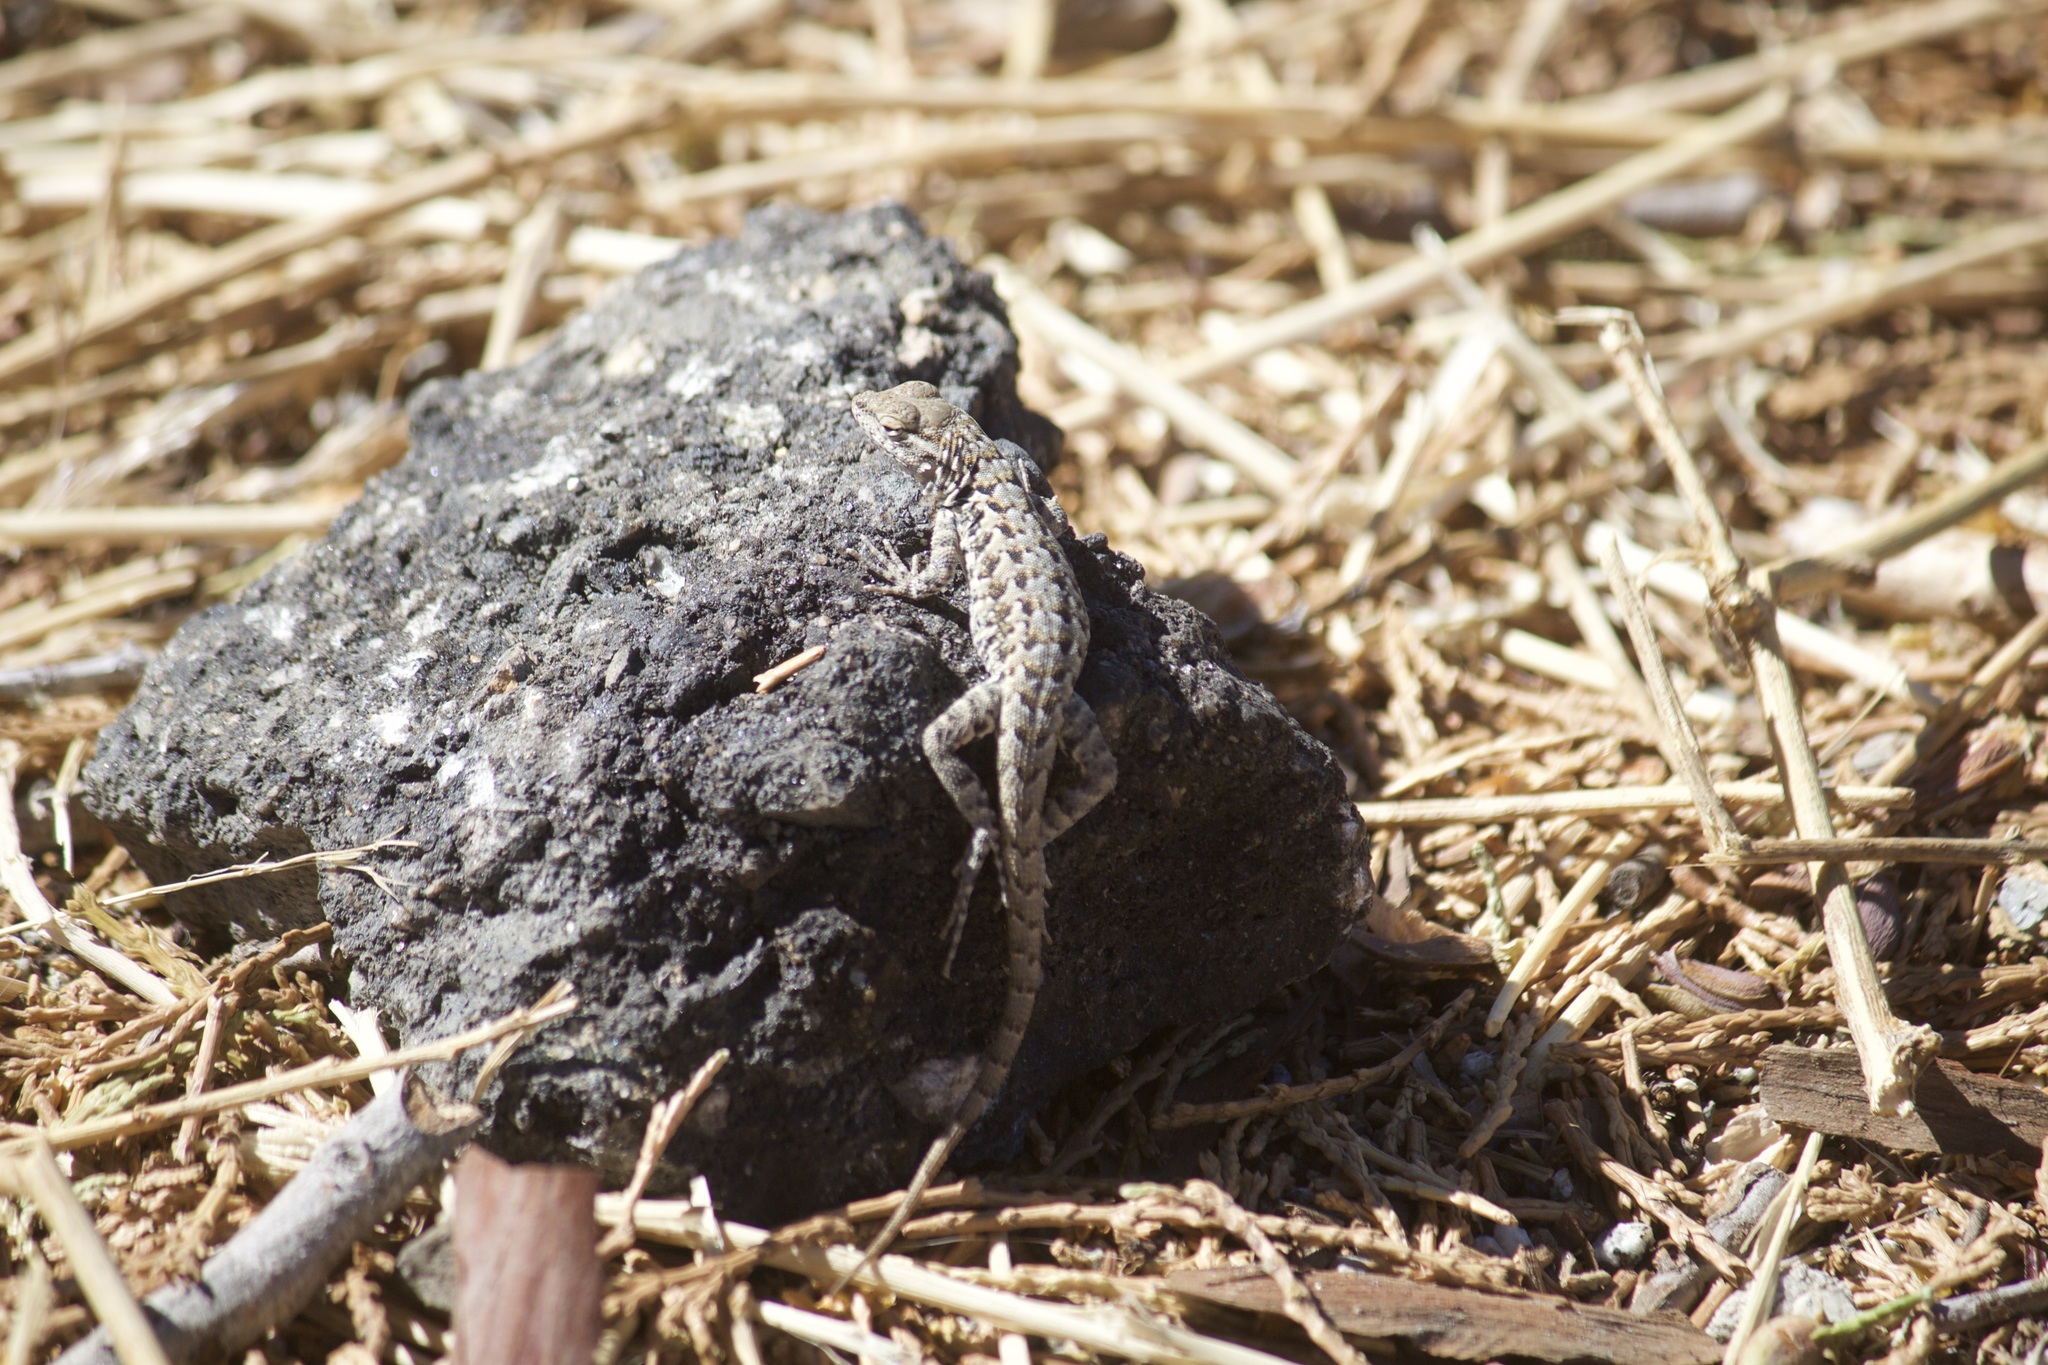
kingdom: Animalia
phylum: Chordata
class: Squamata
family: Phrynosomatidae
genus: Uta
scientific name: Uta stansburiana
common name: Side-blotched lizard
